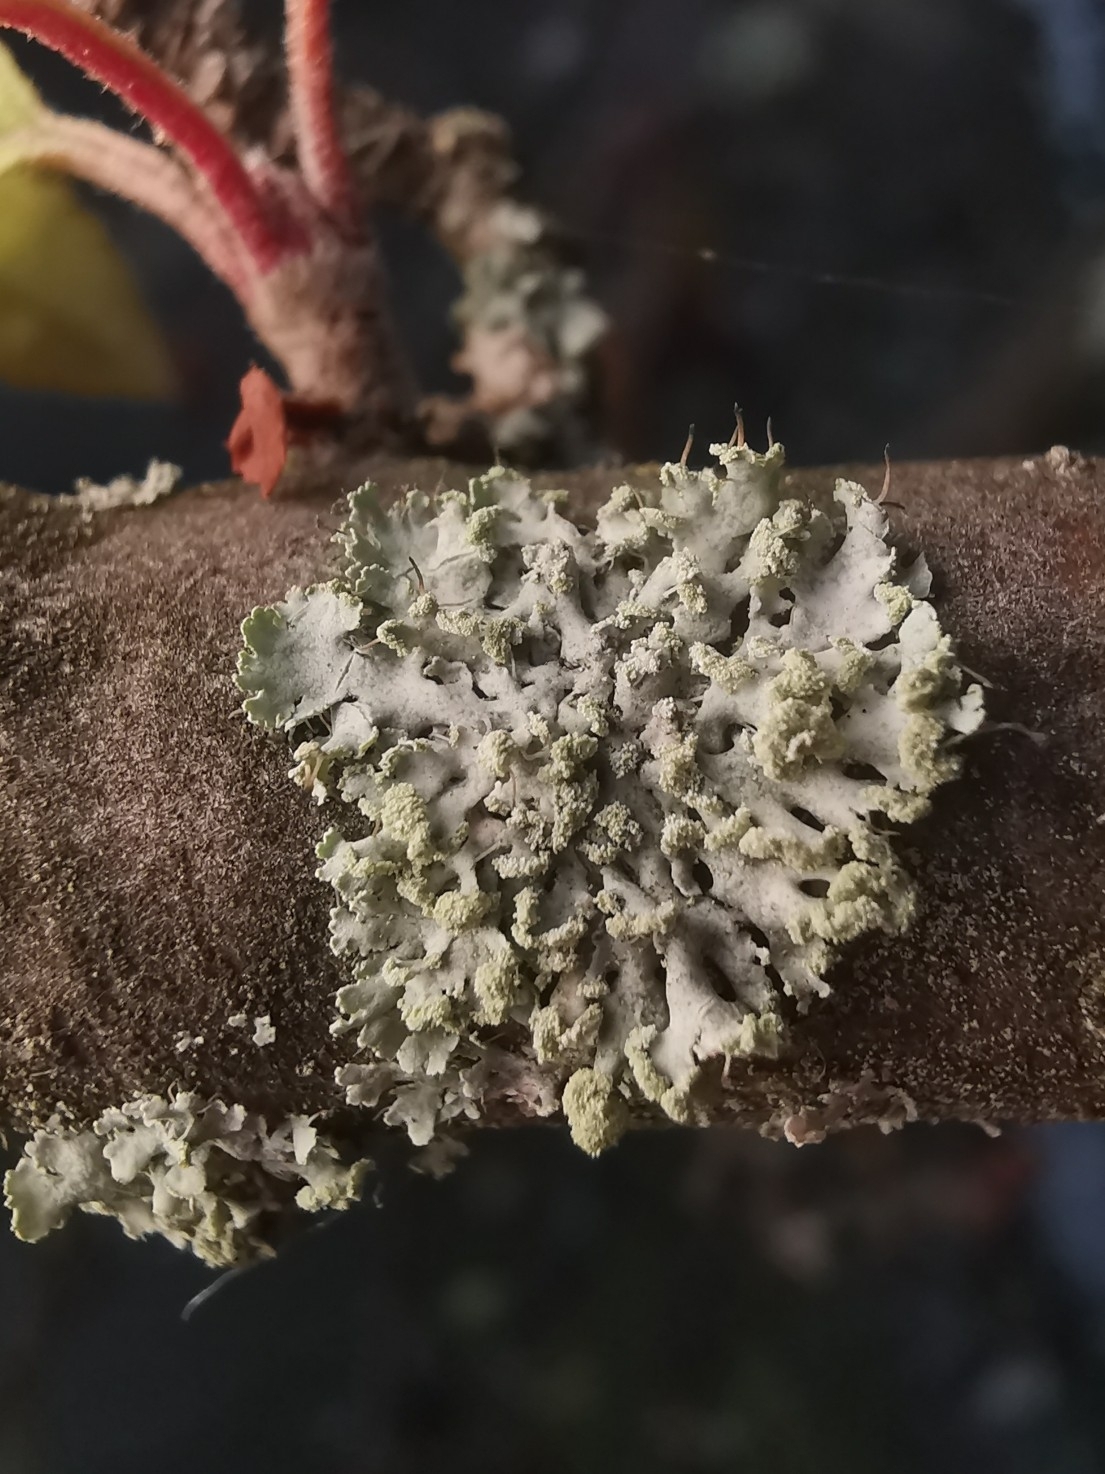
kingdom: Fungi
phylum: Ascomycota
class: Lecanoromycetes
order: Caliciales
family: Physciaceae
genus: Physcia
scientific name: Physcia tenella
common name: Fringed rosette lichen
